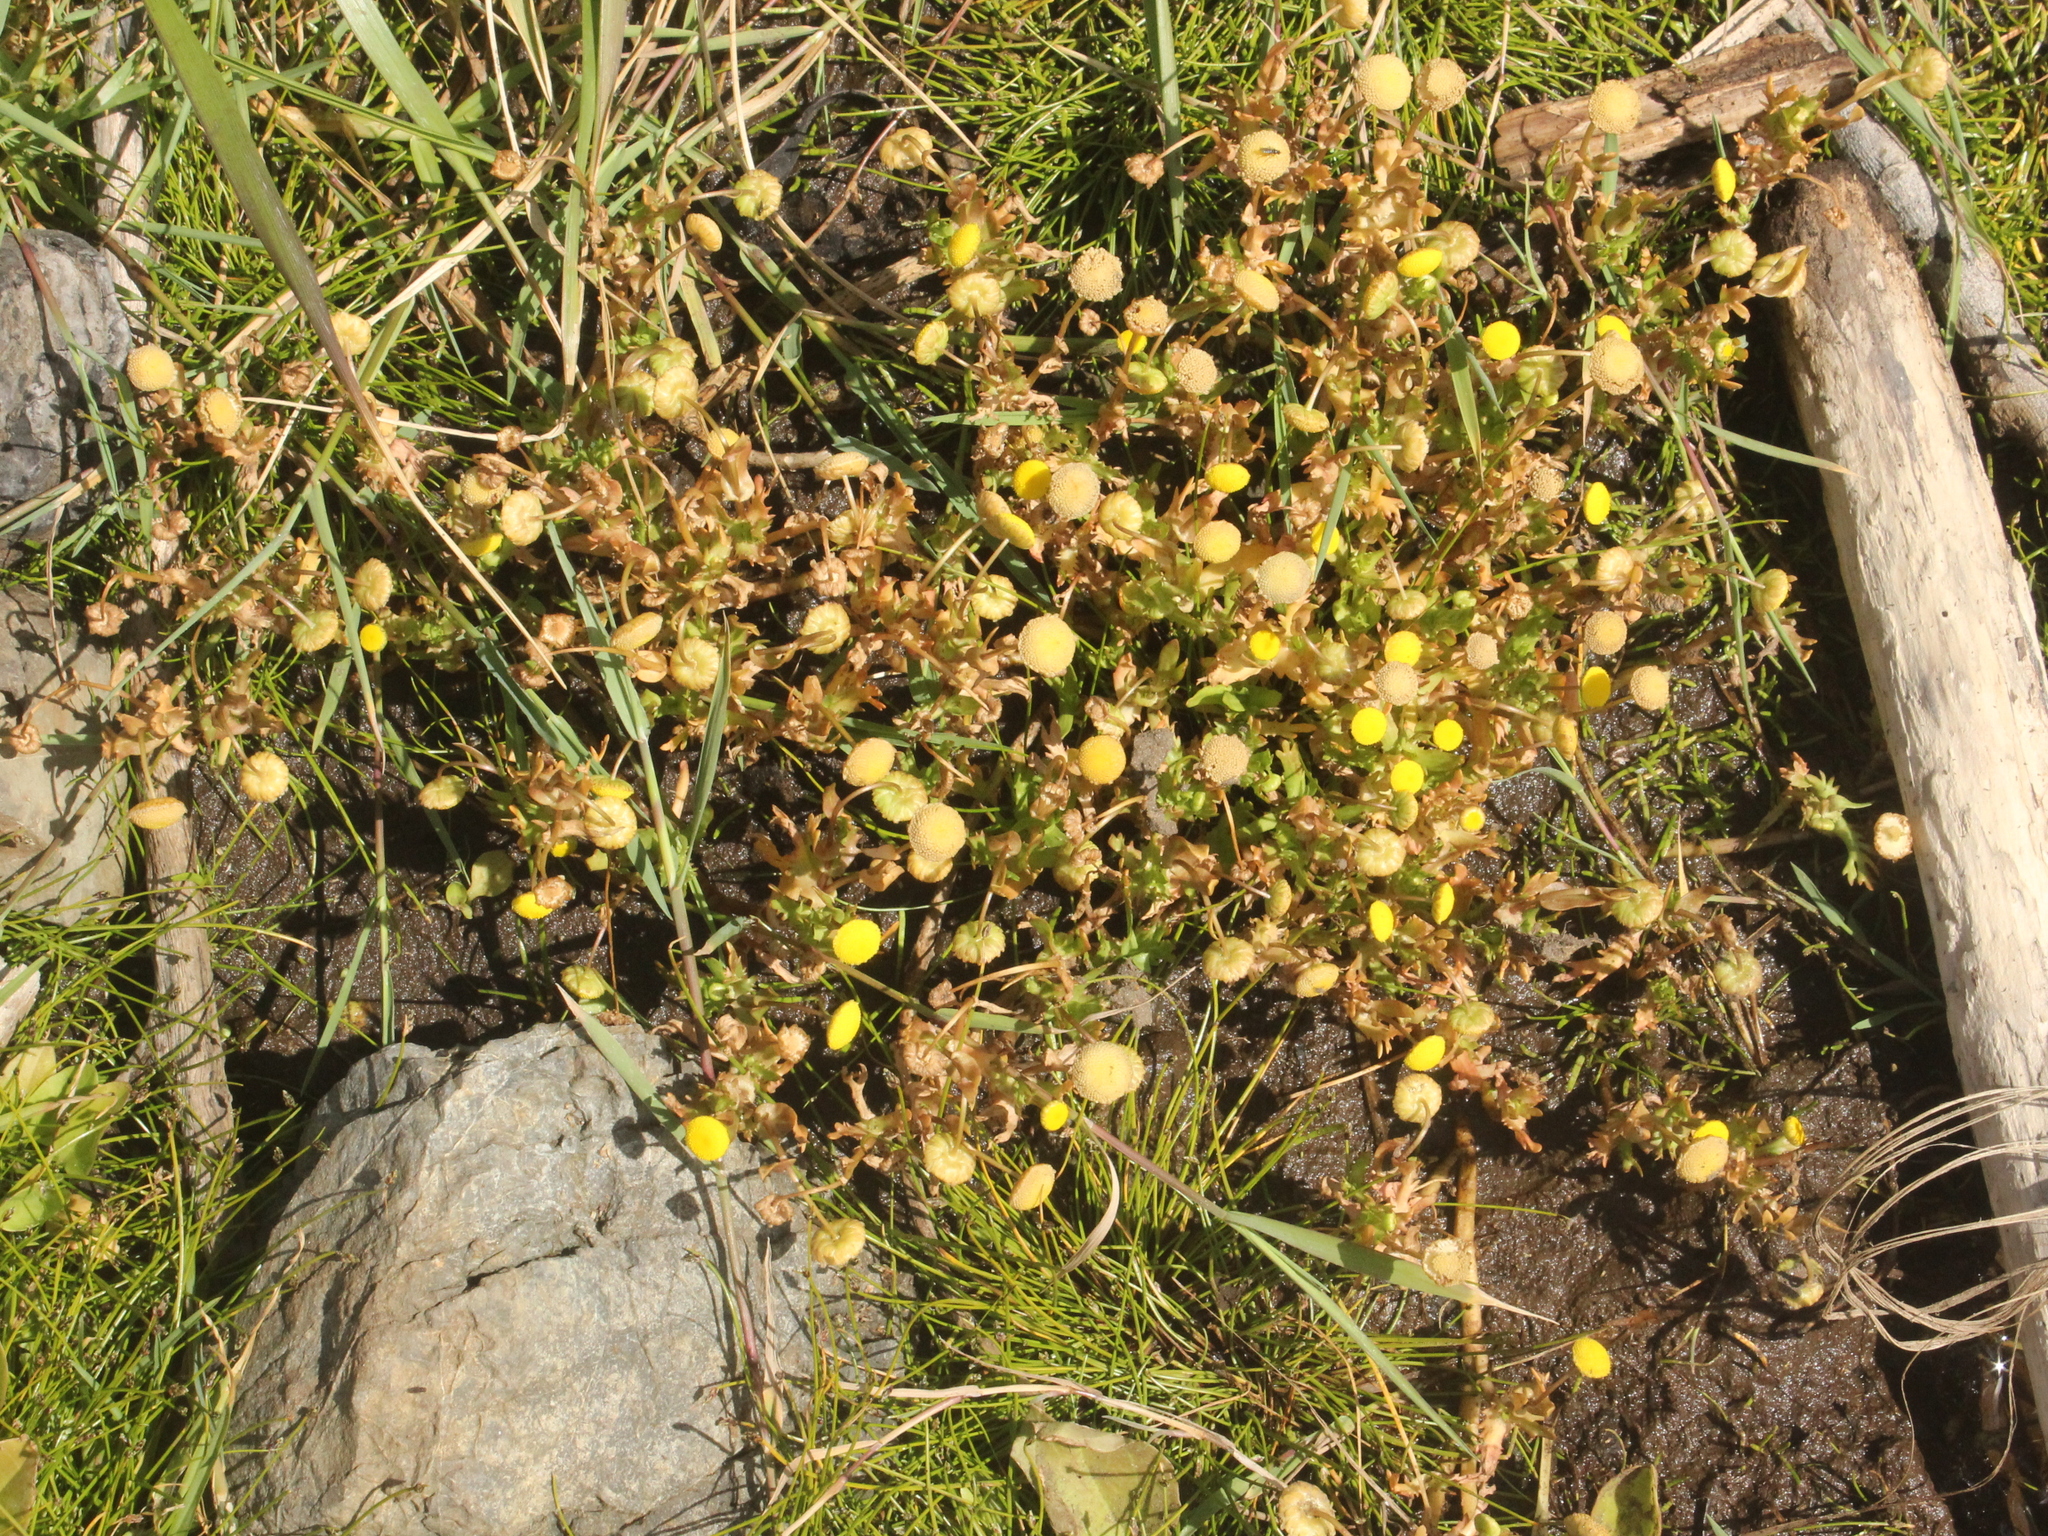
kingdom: Plantae
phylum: Tracheophyta
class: Magnoliopsida
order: Asterales
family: Asteraceae
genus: Cotula
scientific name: Cotula coronopifolia
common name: Buttonweed
